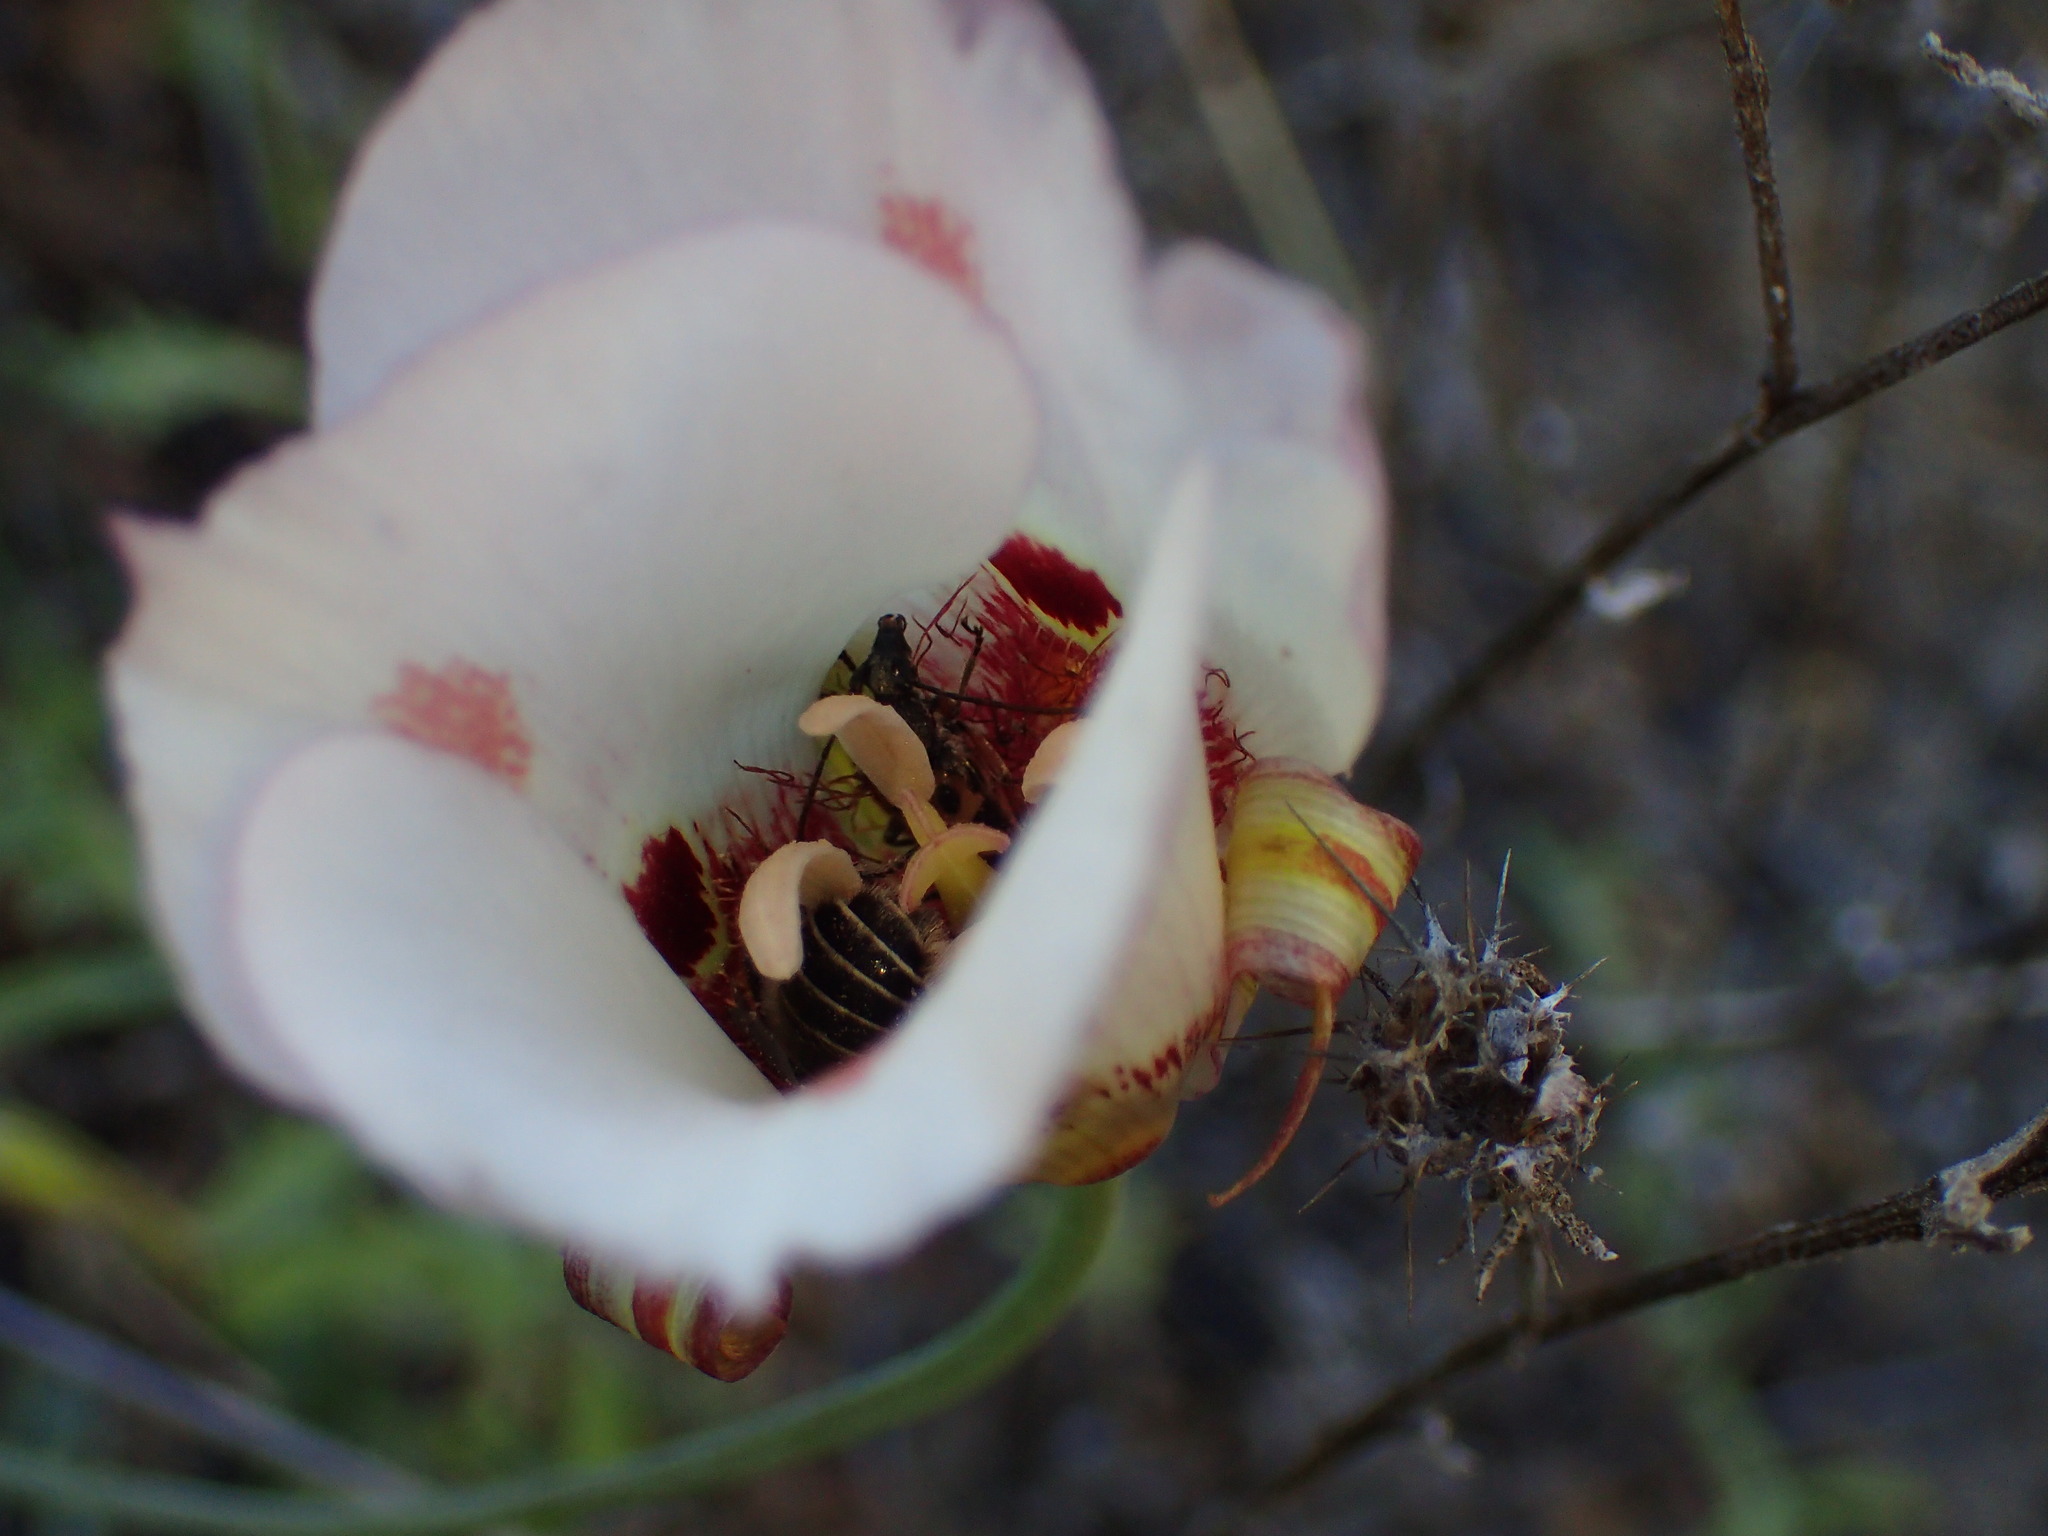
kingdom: Plantae
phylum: Tracheophyta
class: Liliopsida
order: Liliales
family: Liliaceae
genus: Calochortus
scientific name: Calochortus venustus
